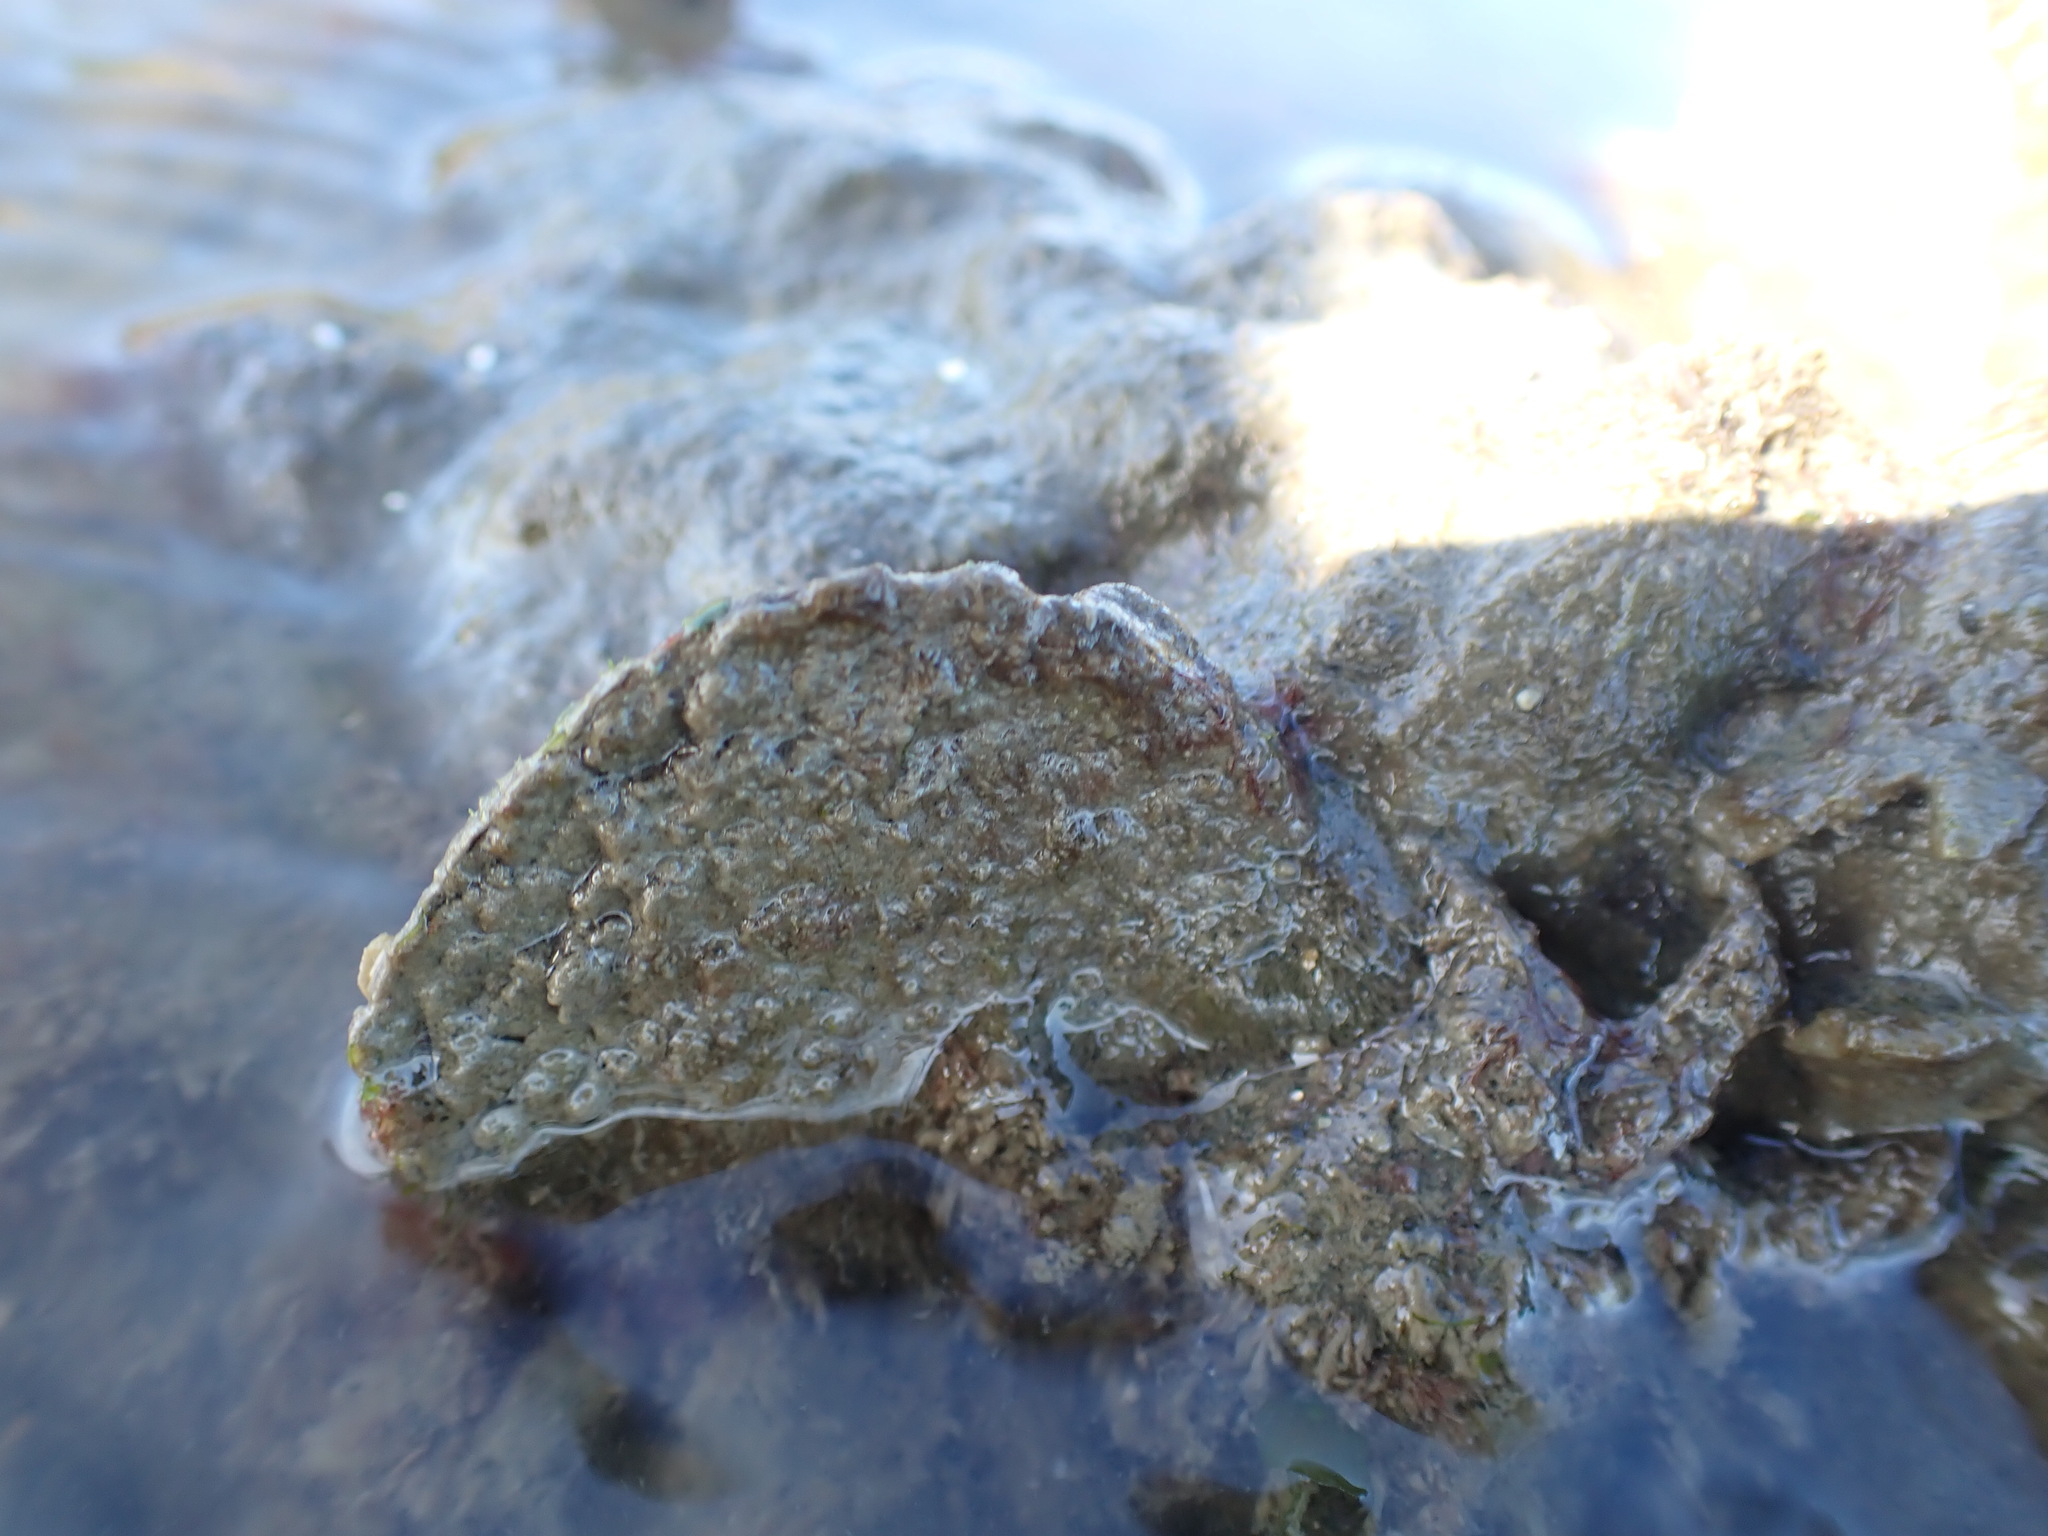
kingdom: Animalia
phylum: Mollusca
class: Bivalvia
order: Ostreida
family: Ostreidae
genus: Ostrea
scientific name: Ostrea chilensis
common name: Chilean oyster
